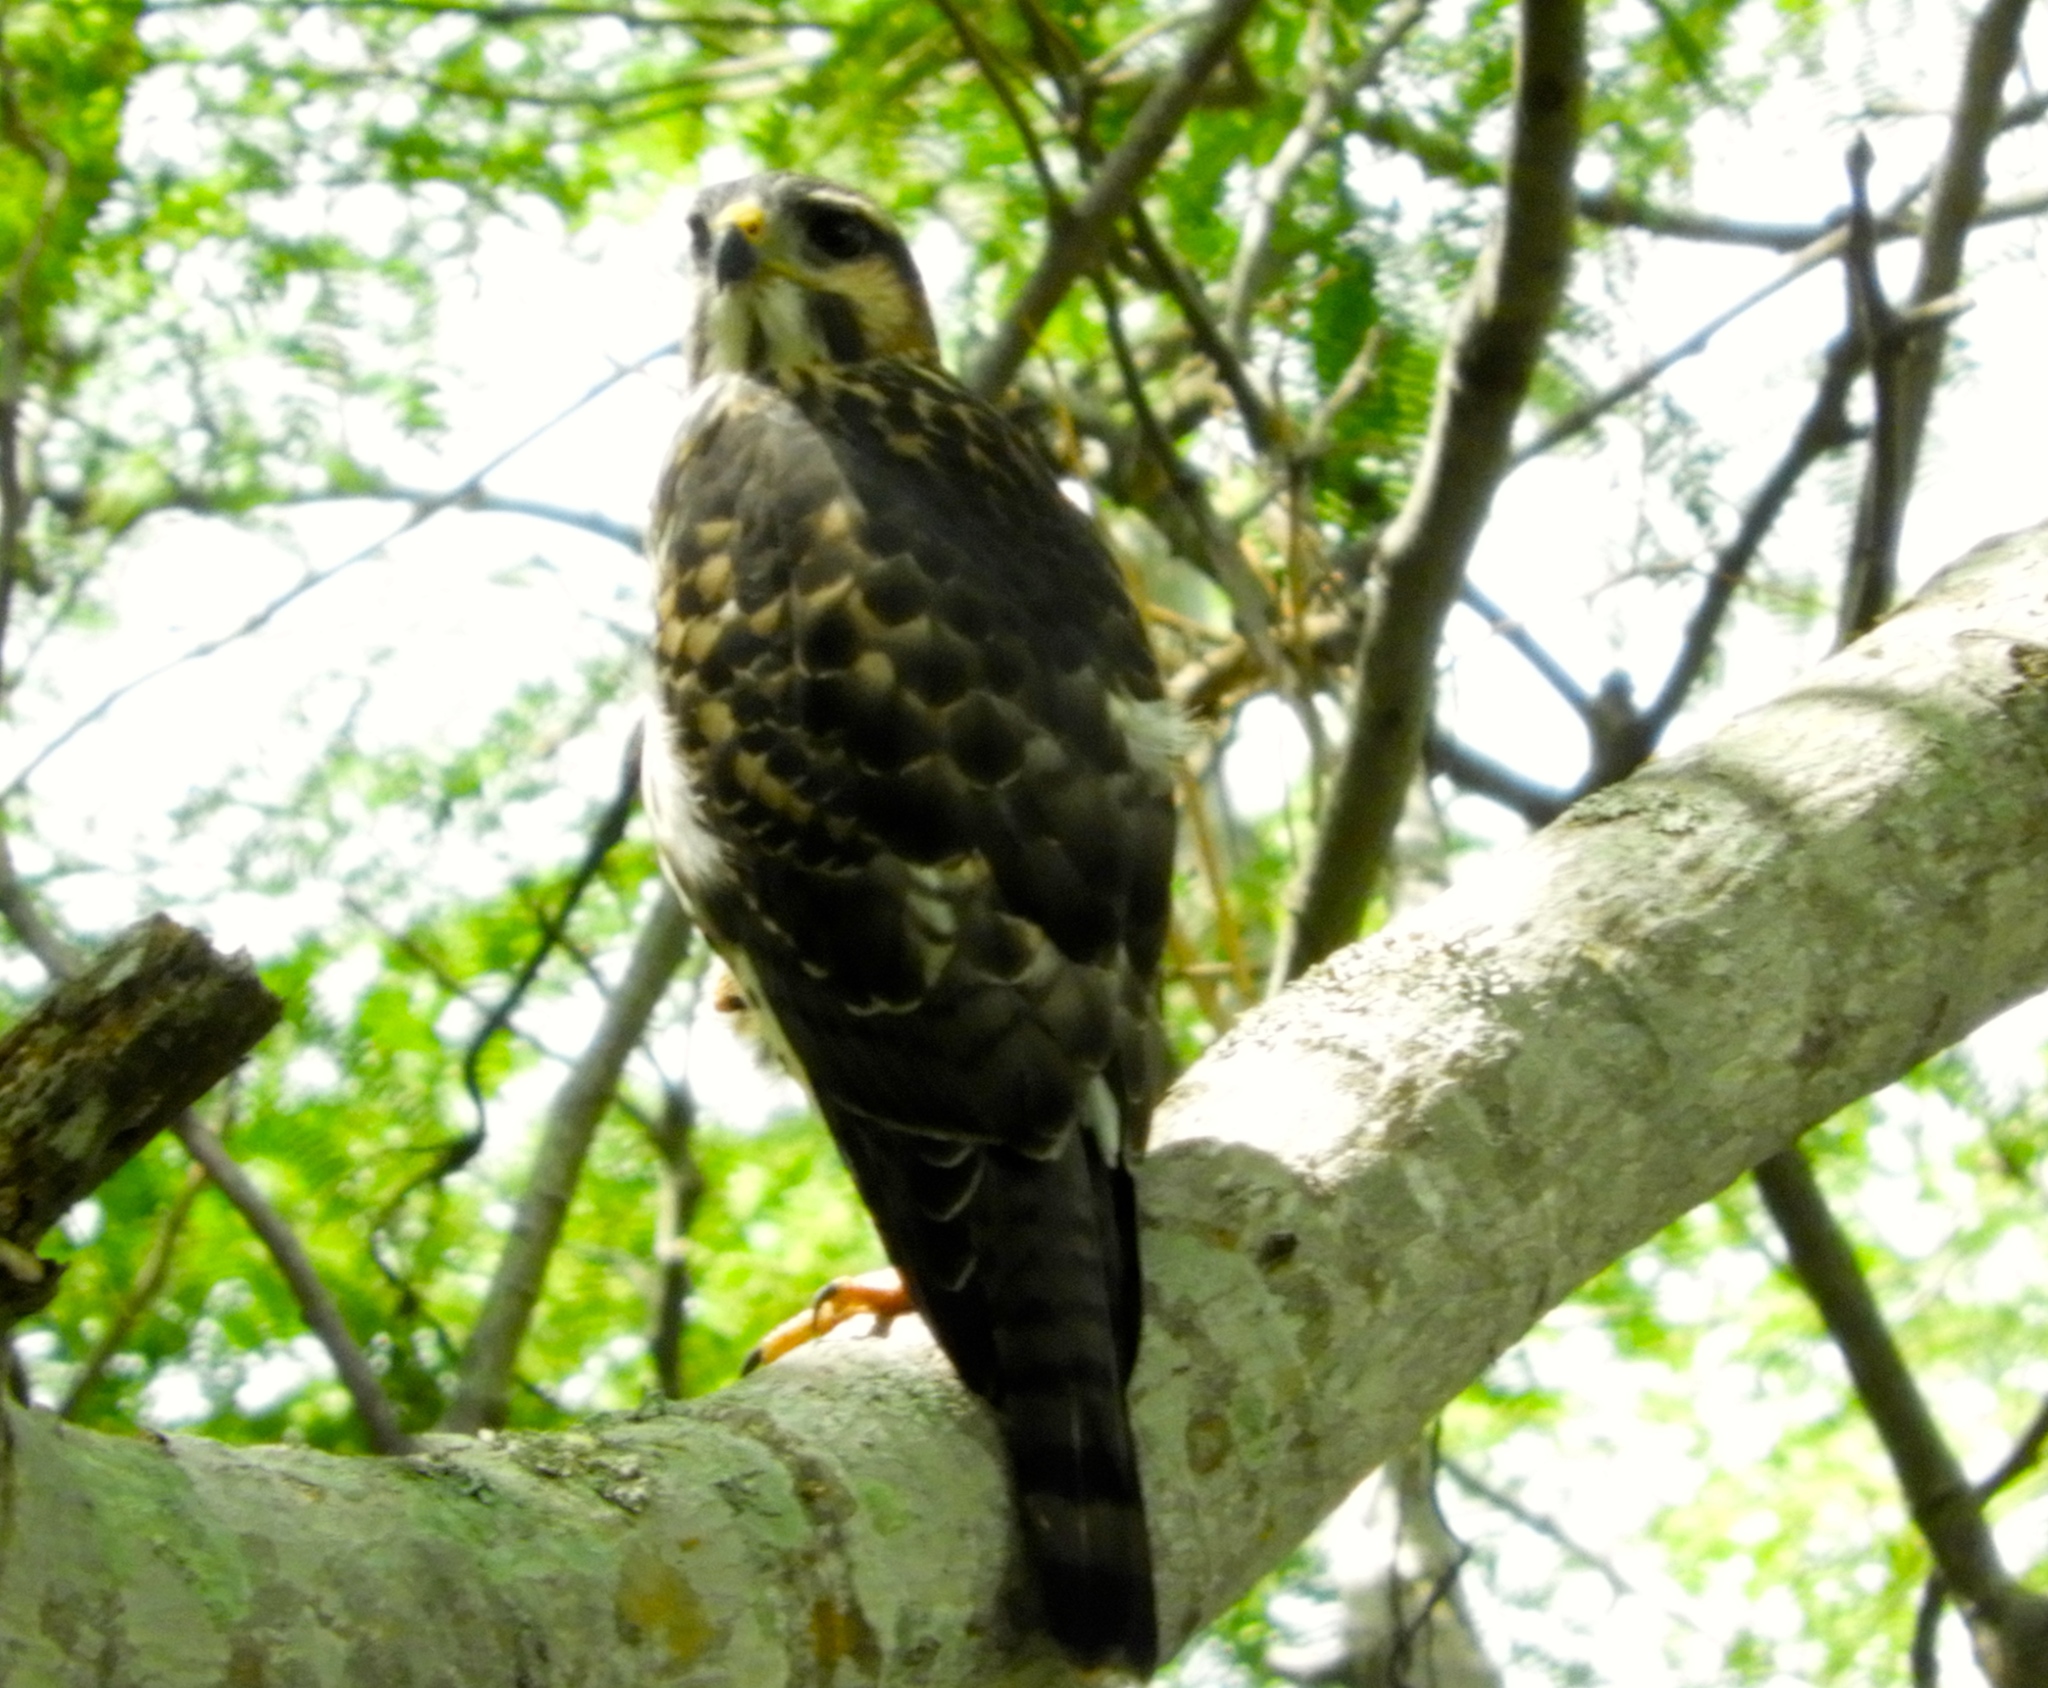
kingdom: Animalia
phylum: Chordata
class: Aves
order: Accipitriformes
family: Accipitridae
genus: Buteo
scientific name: Buteo nitidus
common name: Grey-lined hawk
